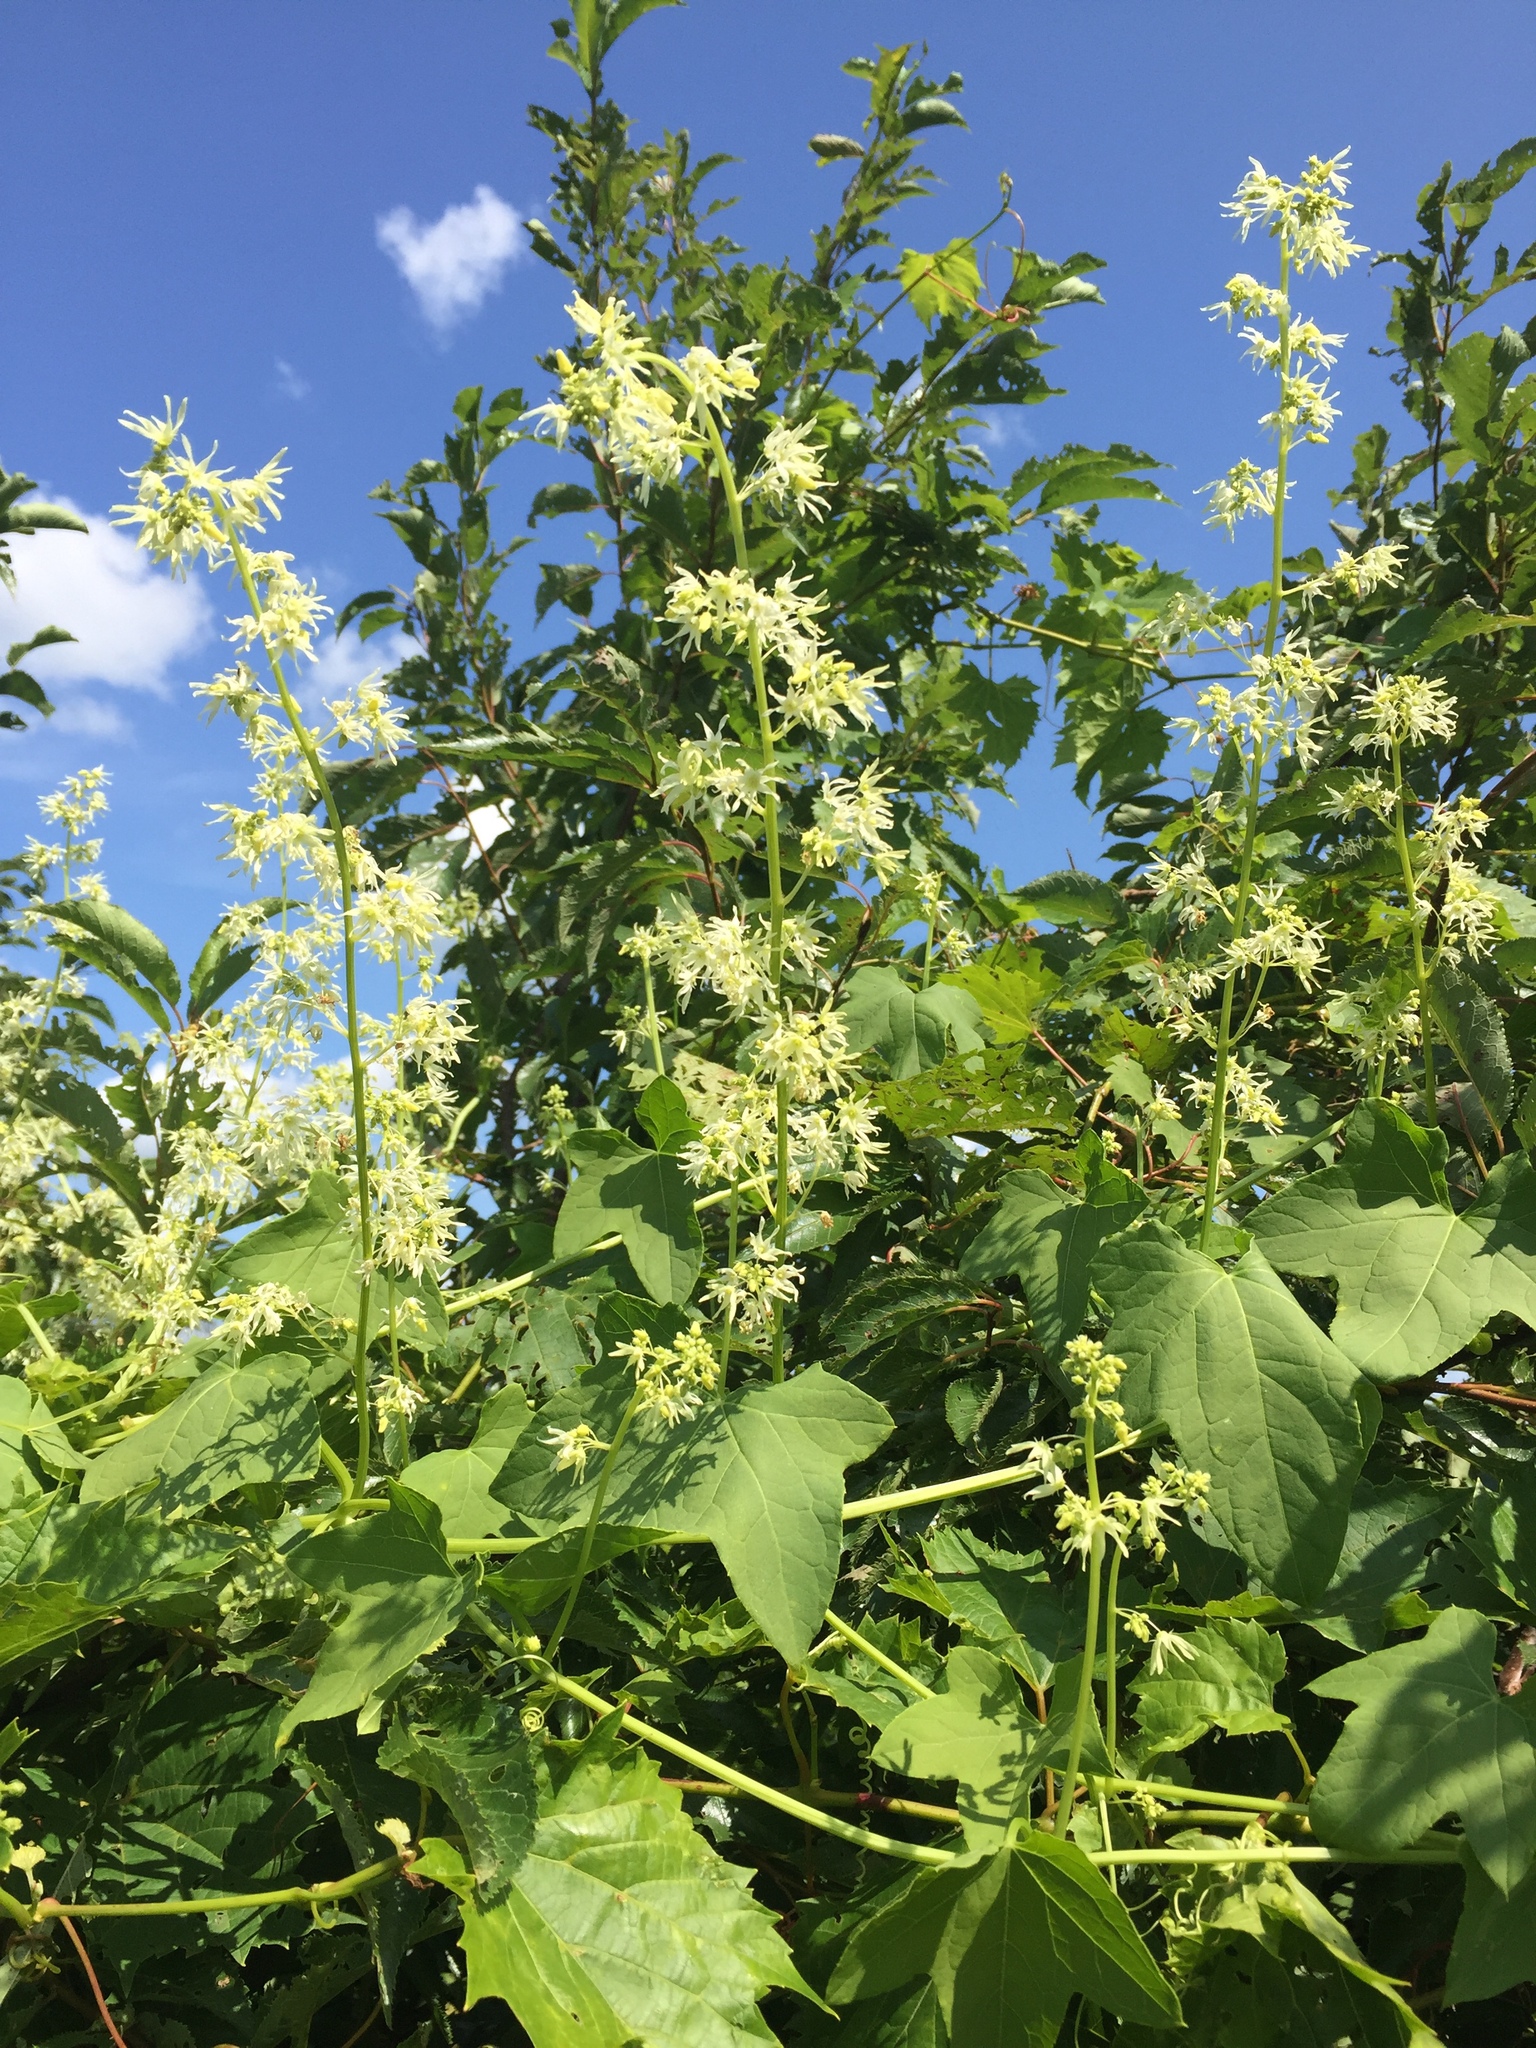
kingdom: Plantae
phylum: Tracheophyta
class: Magnoliopsida
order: Cucurbitales
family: Cucurbitaceae
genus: Echinocystis
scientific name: Echinocystis lobata
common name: Wild cucumber
